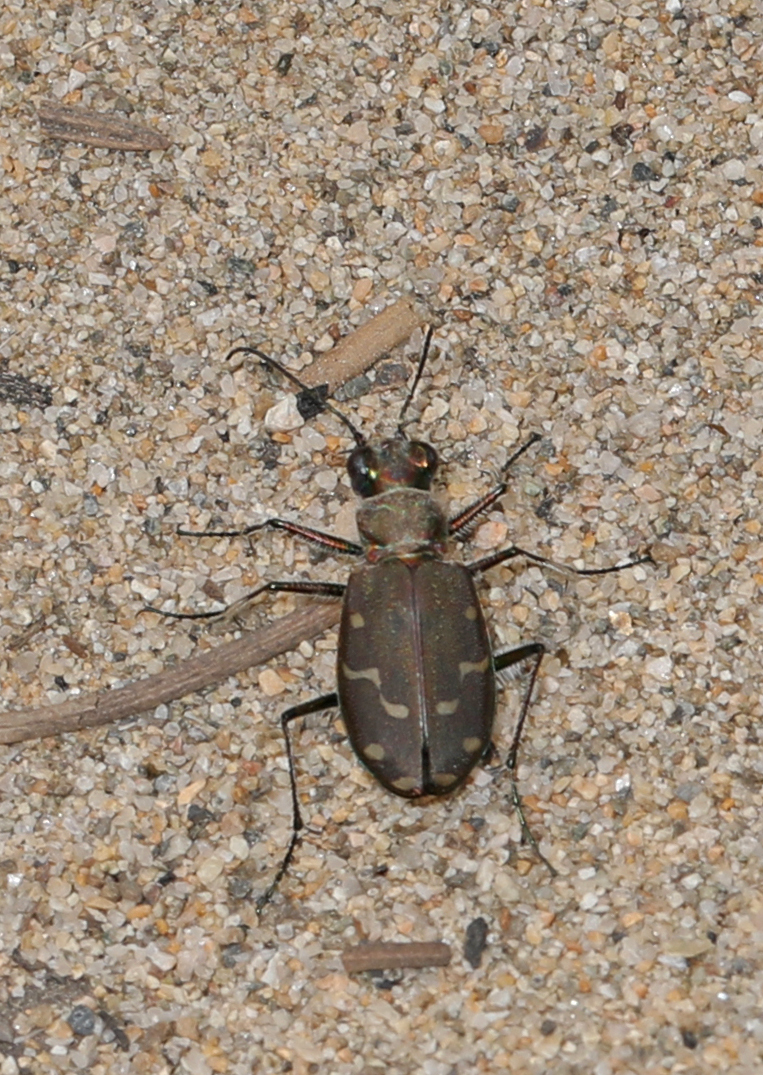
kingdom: Animalia
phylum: Arthropoda
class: Insecta
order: Coleoptera
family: Carabidae
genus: Cicindela
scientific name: Cicindela oregona
